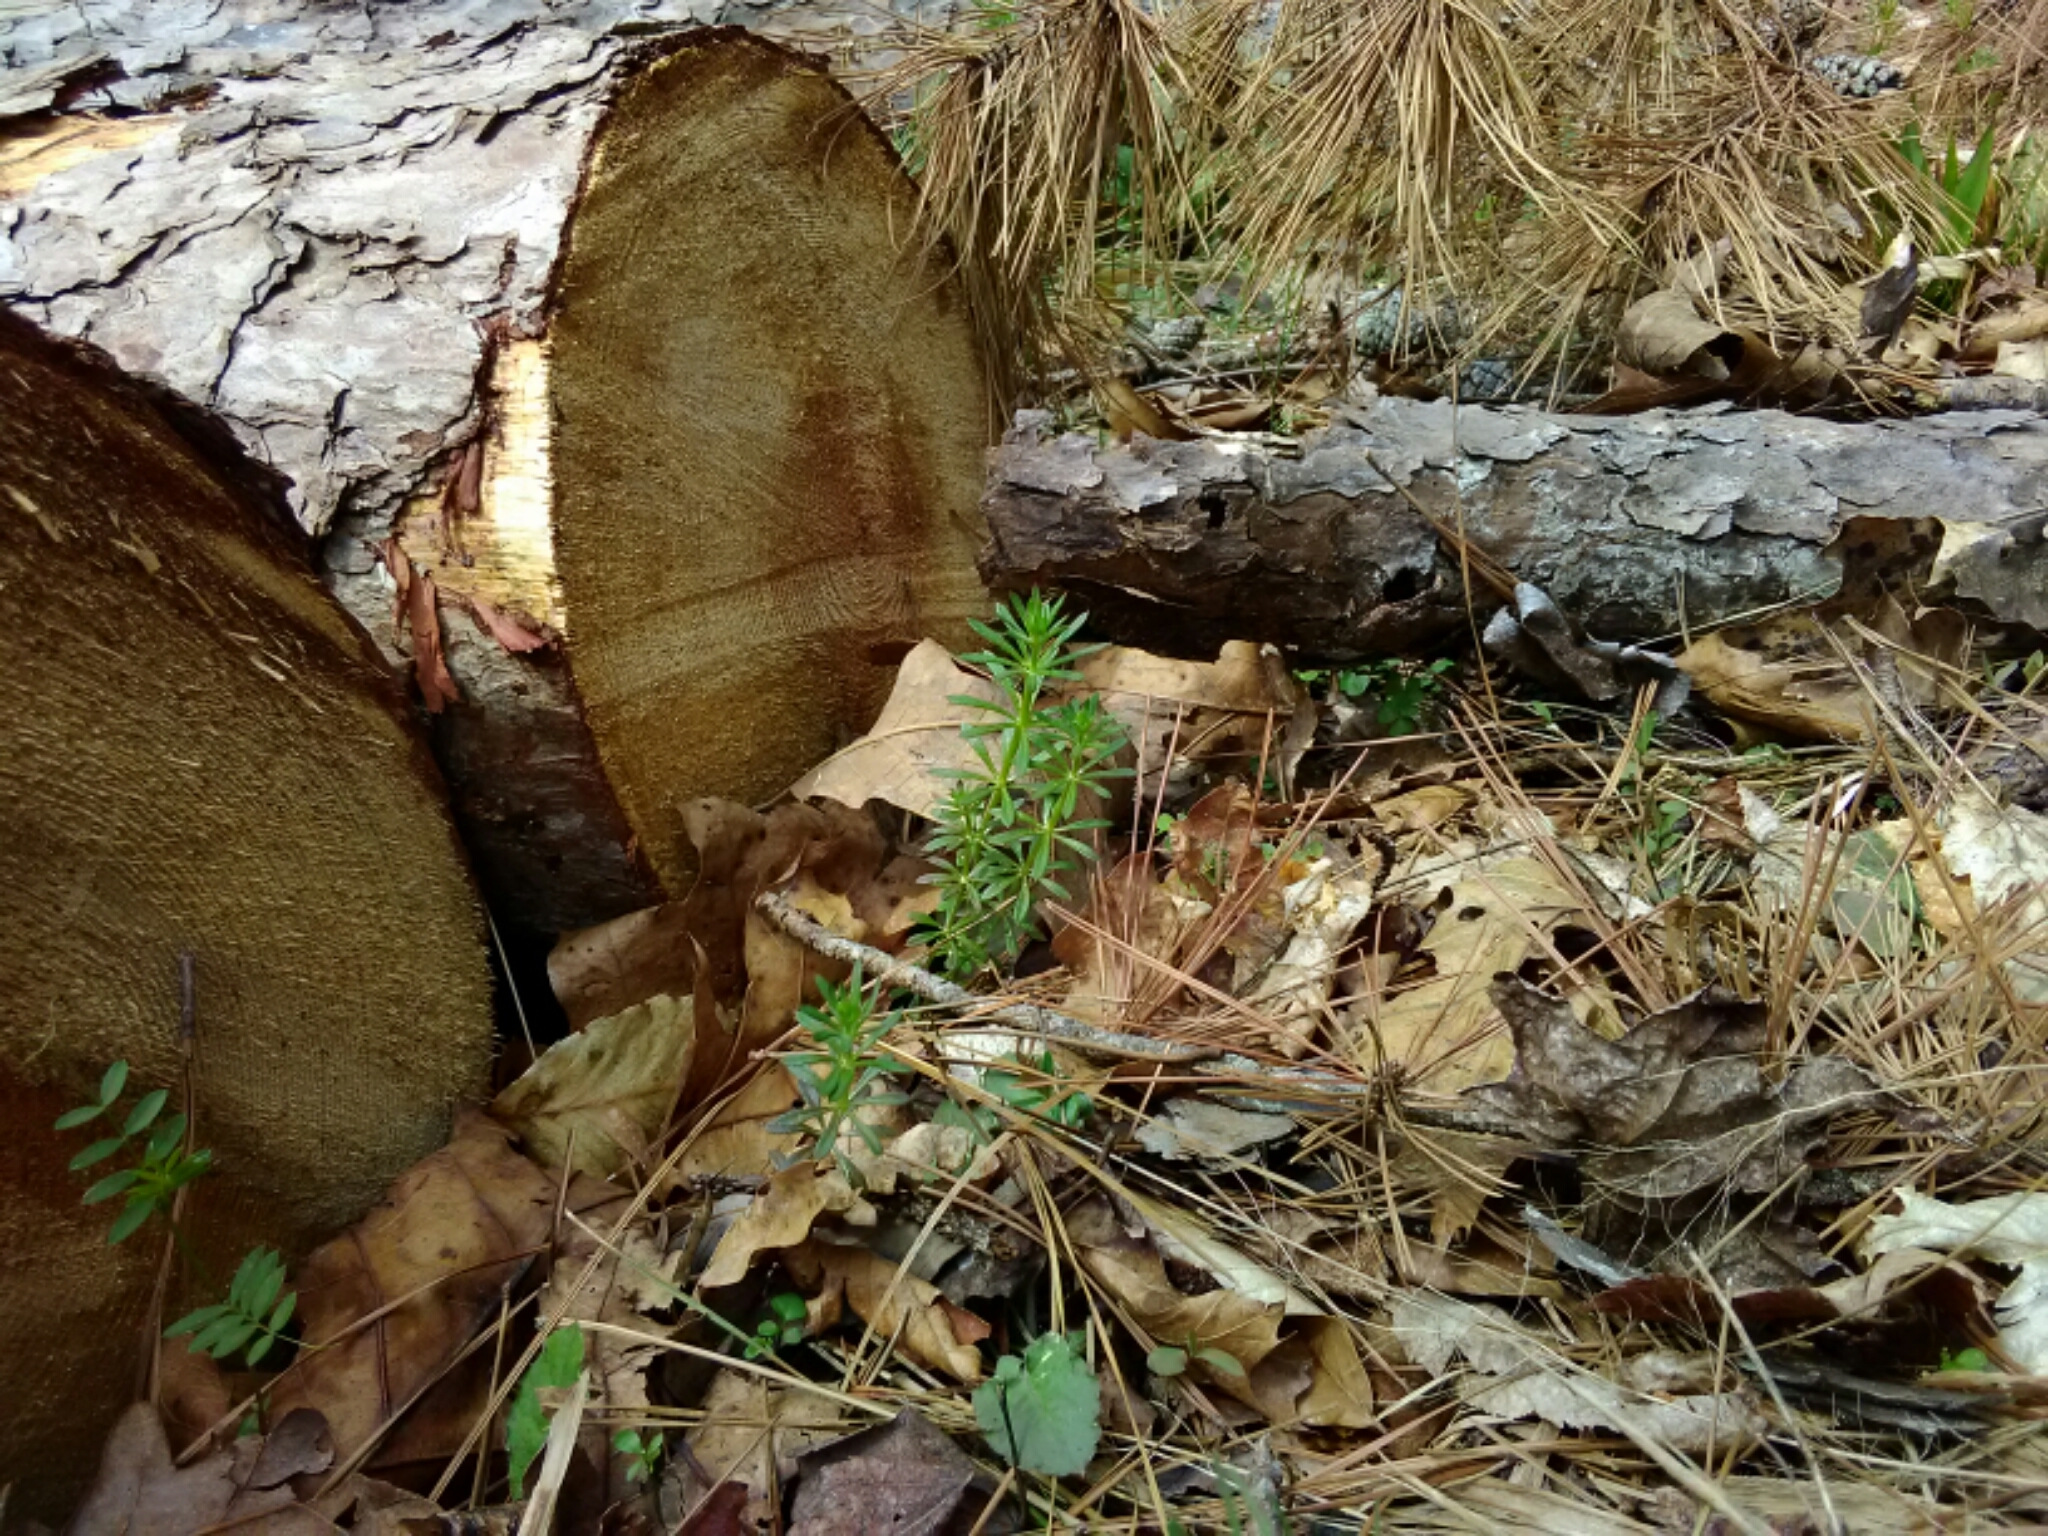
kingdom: Plantae
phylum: Tracheophyta
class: Magnoliopsida
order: Gentianales
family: Rubiaceae
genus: Galium
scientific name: Galium aparine
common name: Cleavers
